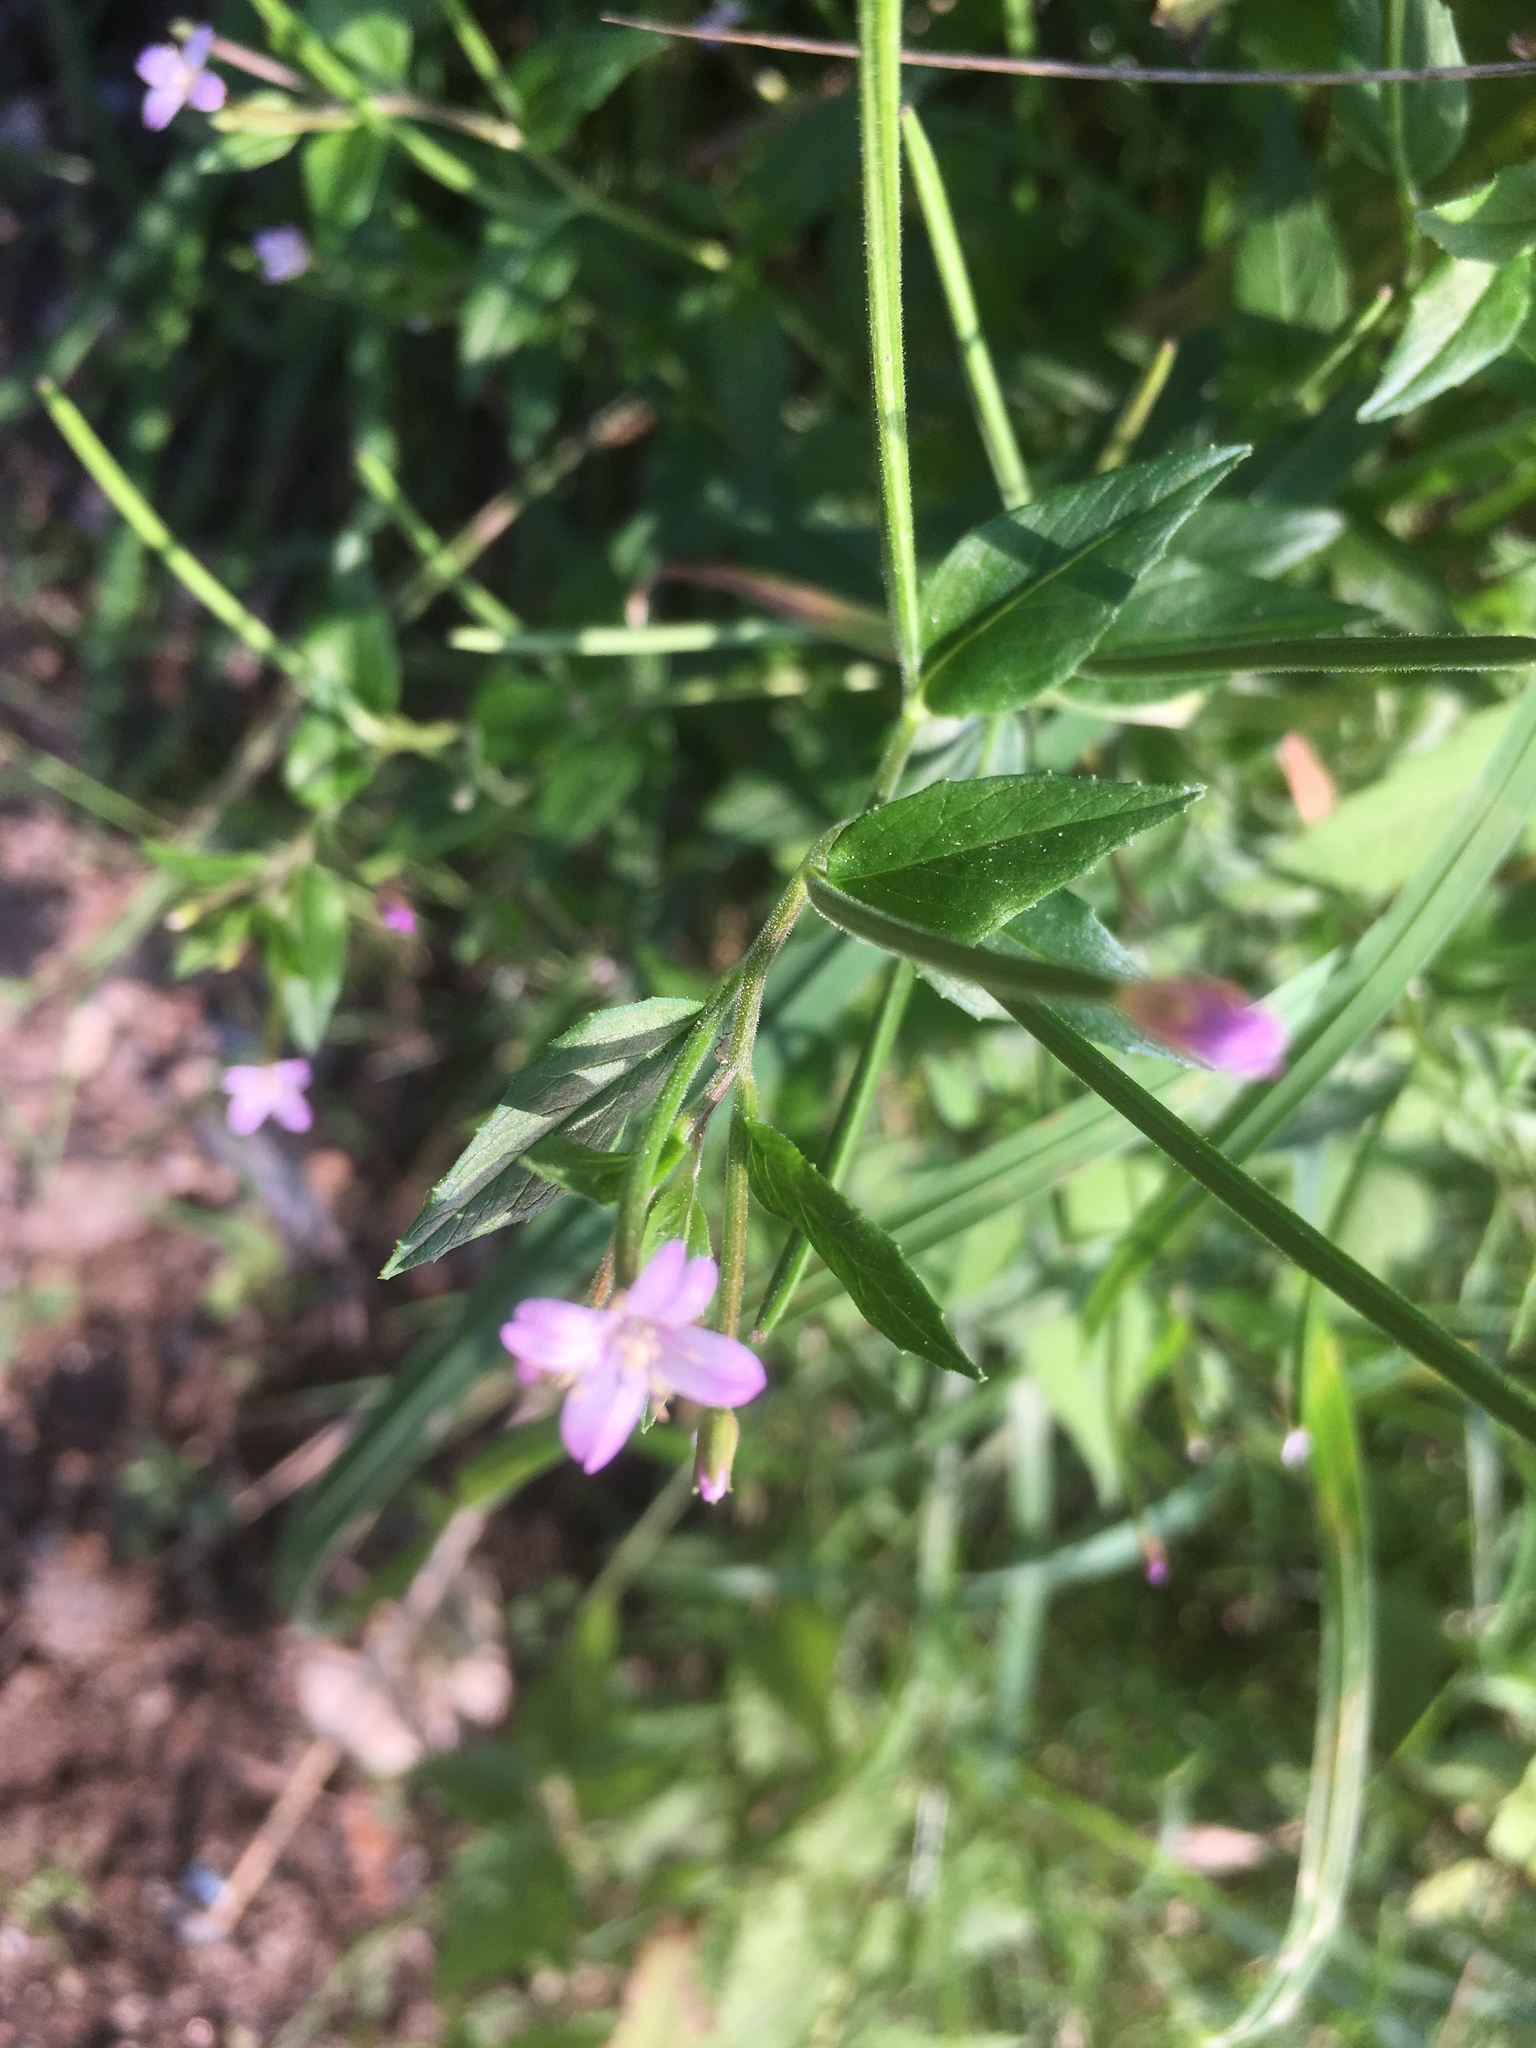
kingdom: Plantae
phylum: Tracheophyta
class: Magnoliopsida
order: Myrtales
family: Onagraceae
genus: Epilobium
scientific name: Epilobium ciliatum
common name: American willowherb
